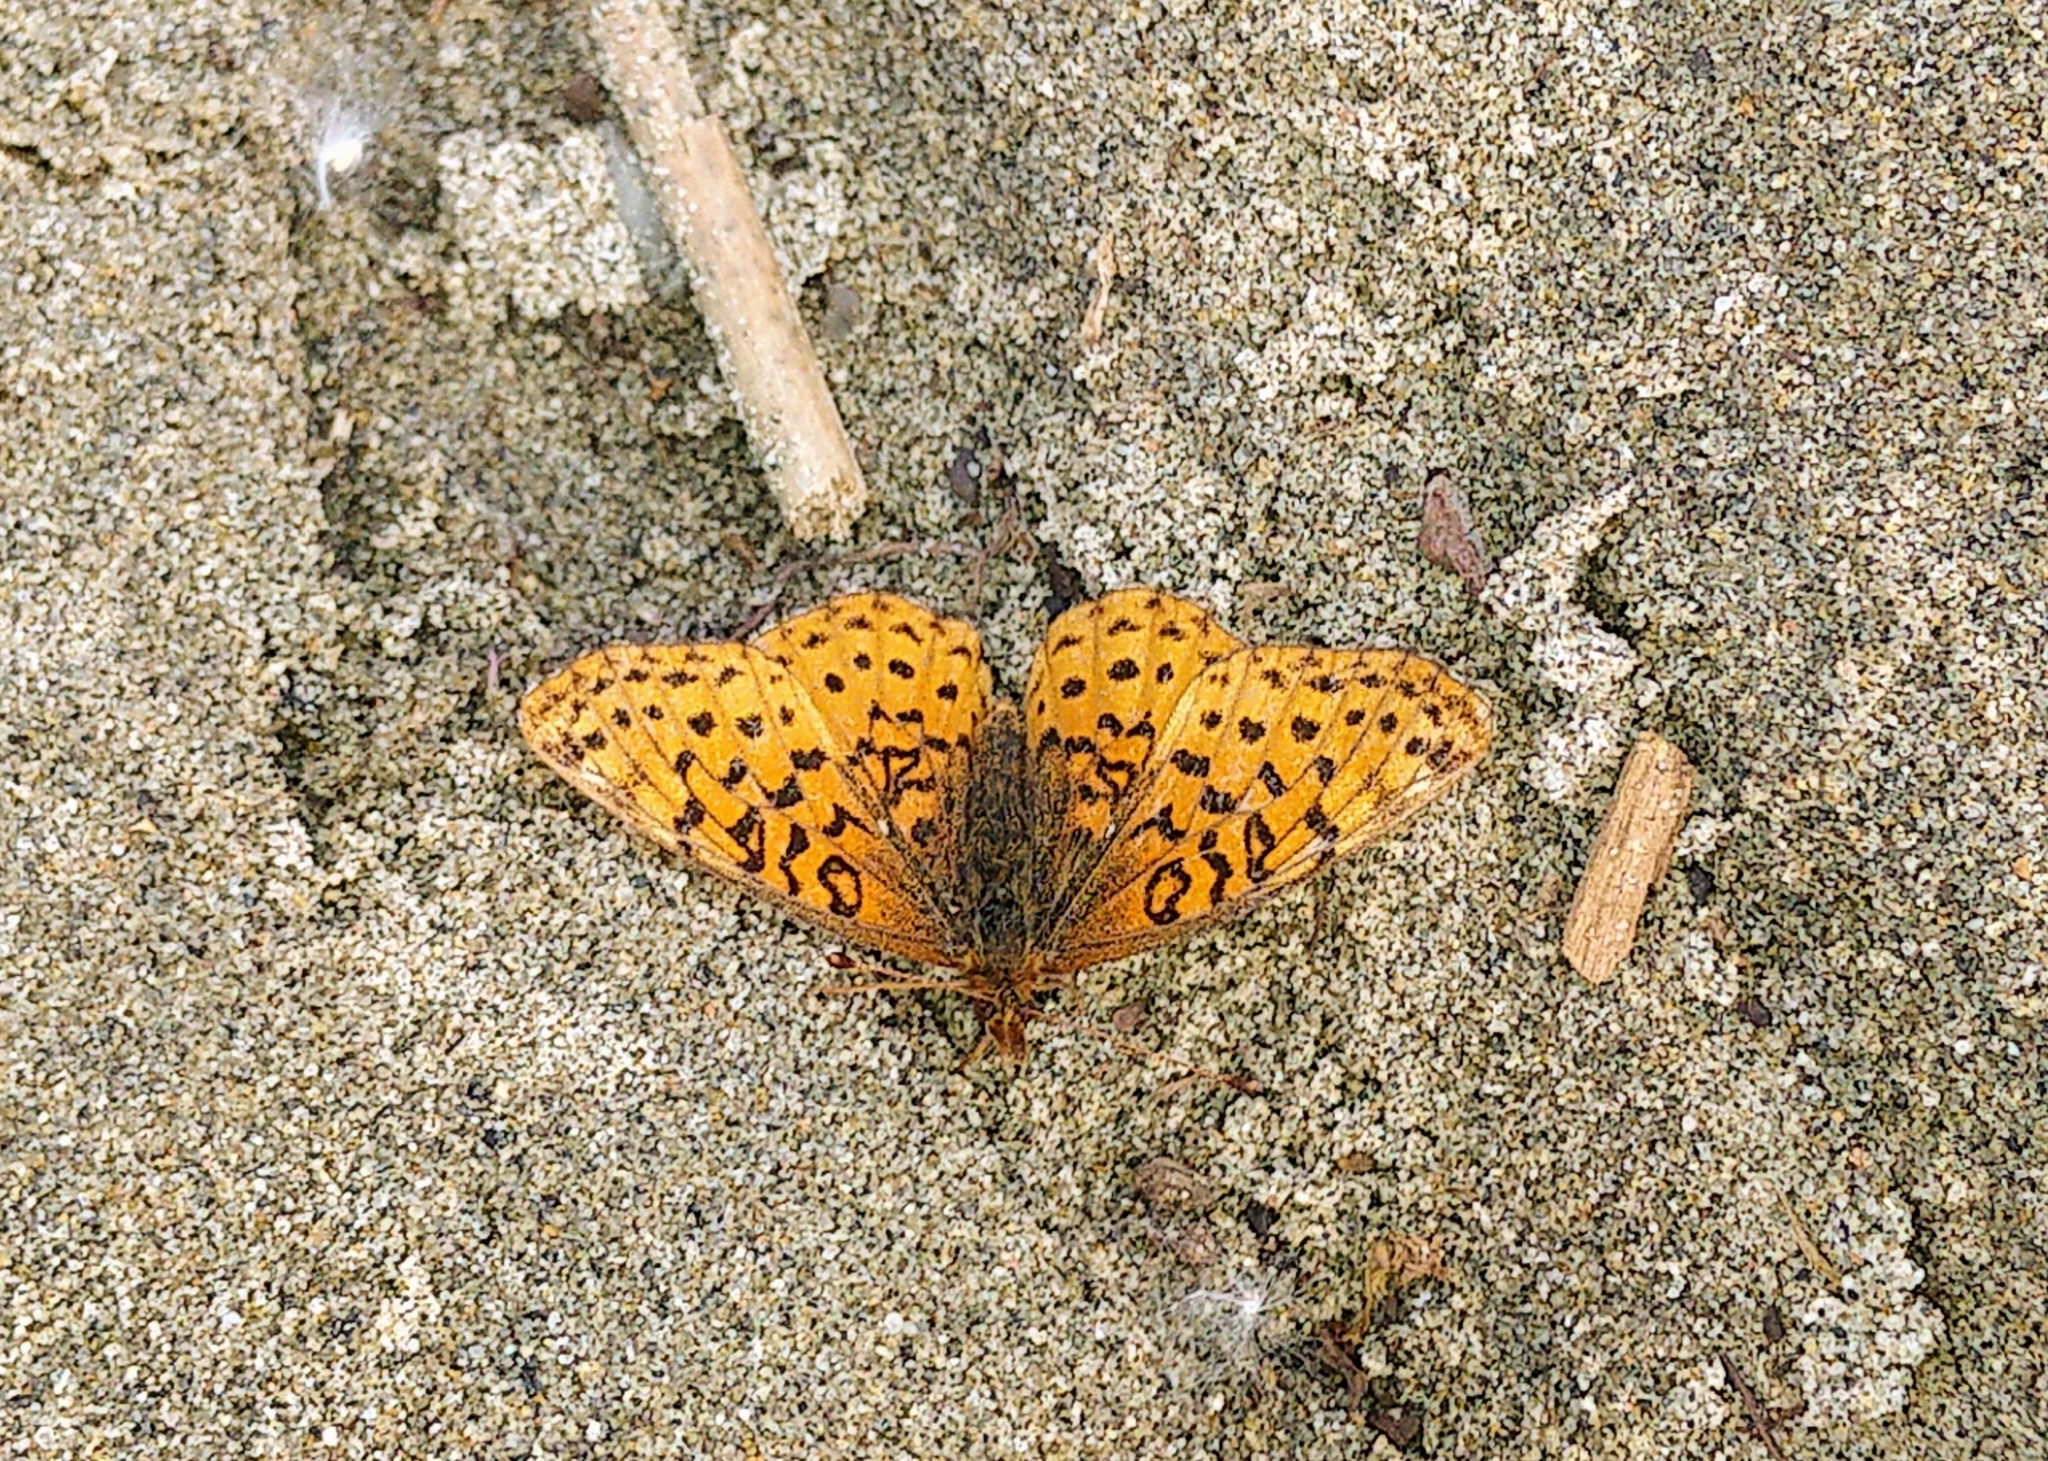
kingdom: Animalia
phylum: Arthropoda
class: Insecta
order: Lepidoptera
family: Nymphalidae
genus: Clossiana
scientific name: Clossiana toddi
